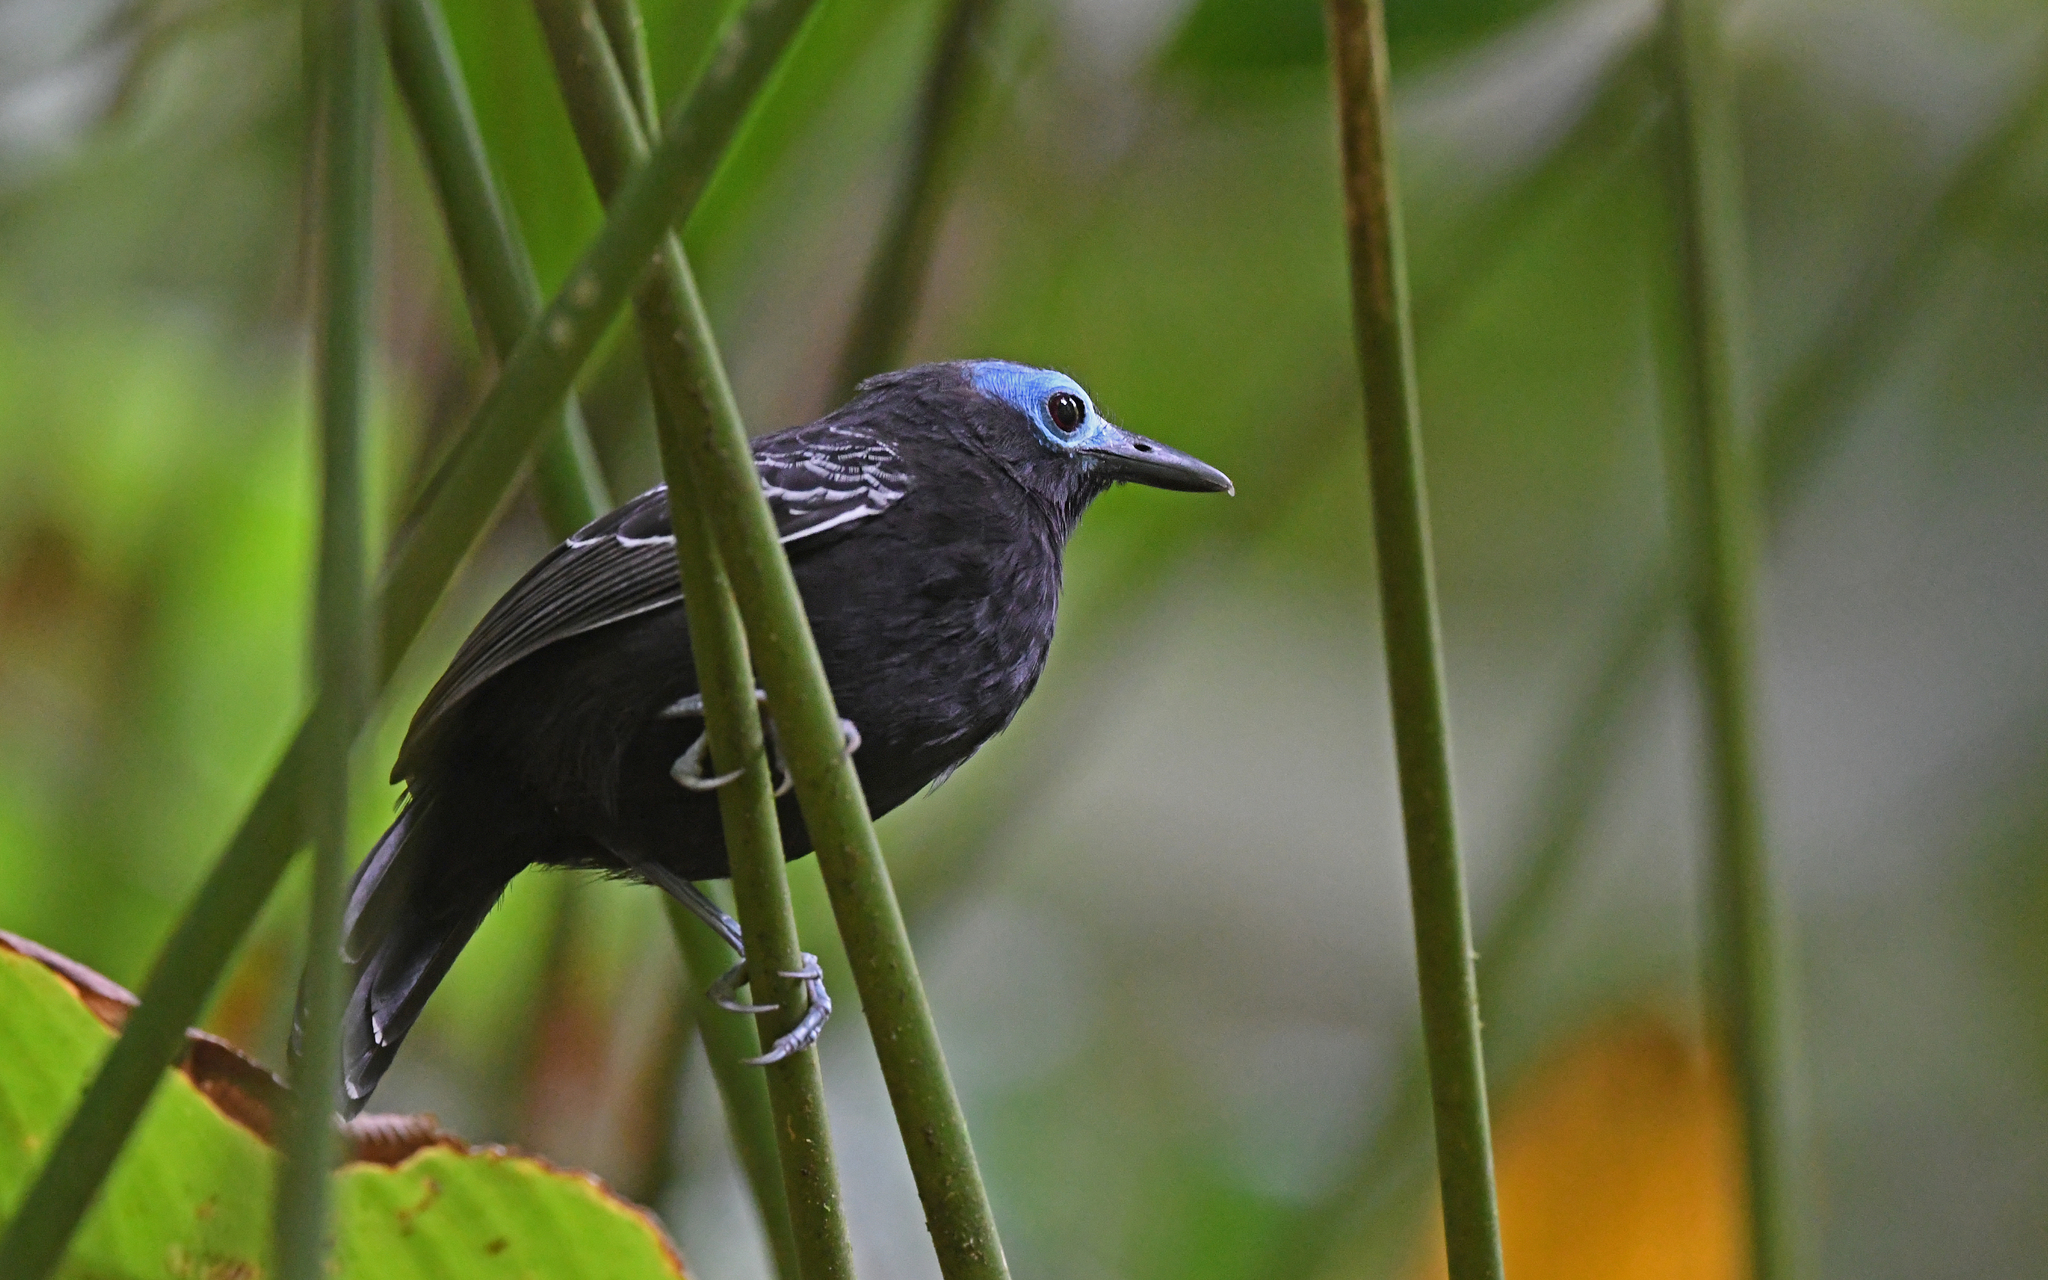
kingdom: Animalia
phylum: Chordata
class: Aves
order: Passeriformes
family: Thamnophilidae
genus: Gymnocichla
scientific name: Gymnocichla nudiceps
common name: Bare-crowned antbird
